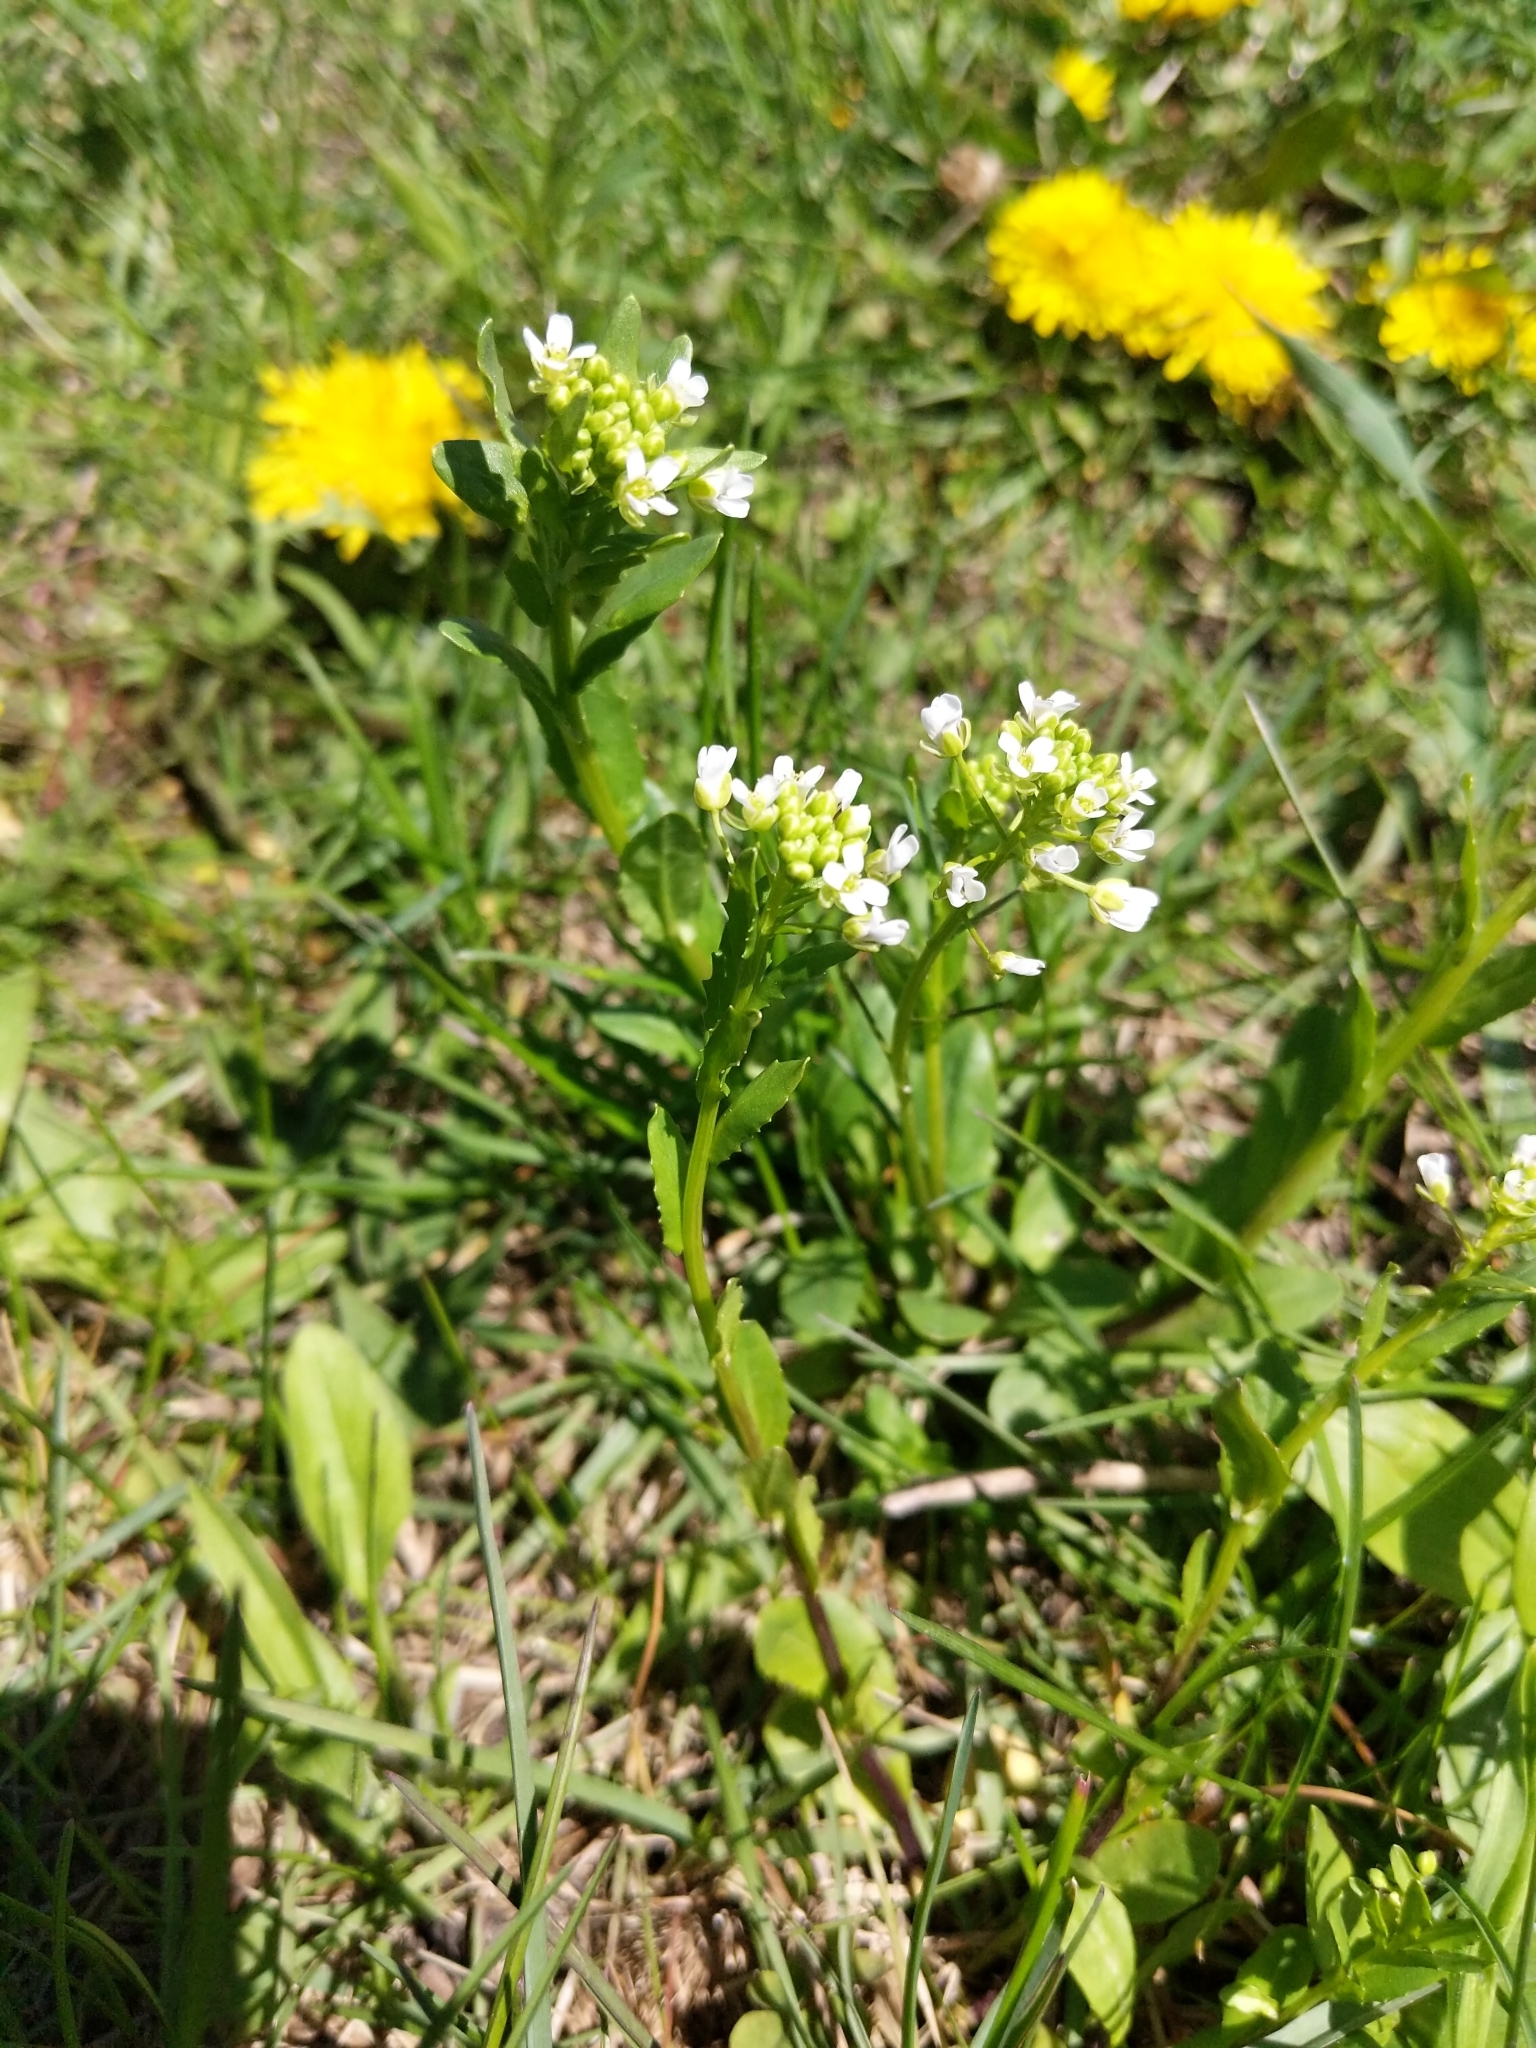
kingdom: Plantae
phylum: Tracheophyta
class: Magnoliopsida
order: Brassicales
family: Brassicaceae
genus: Thlaspi
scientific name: Thlaspi arvense
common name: Field pennycress
